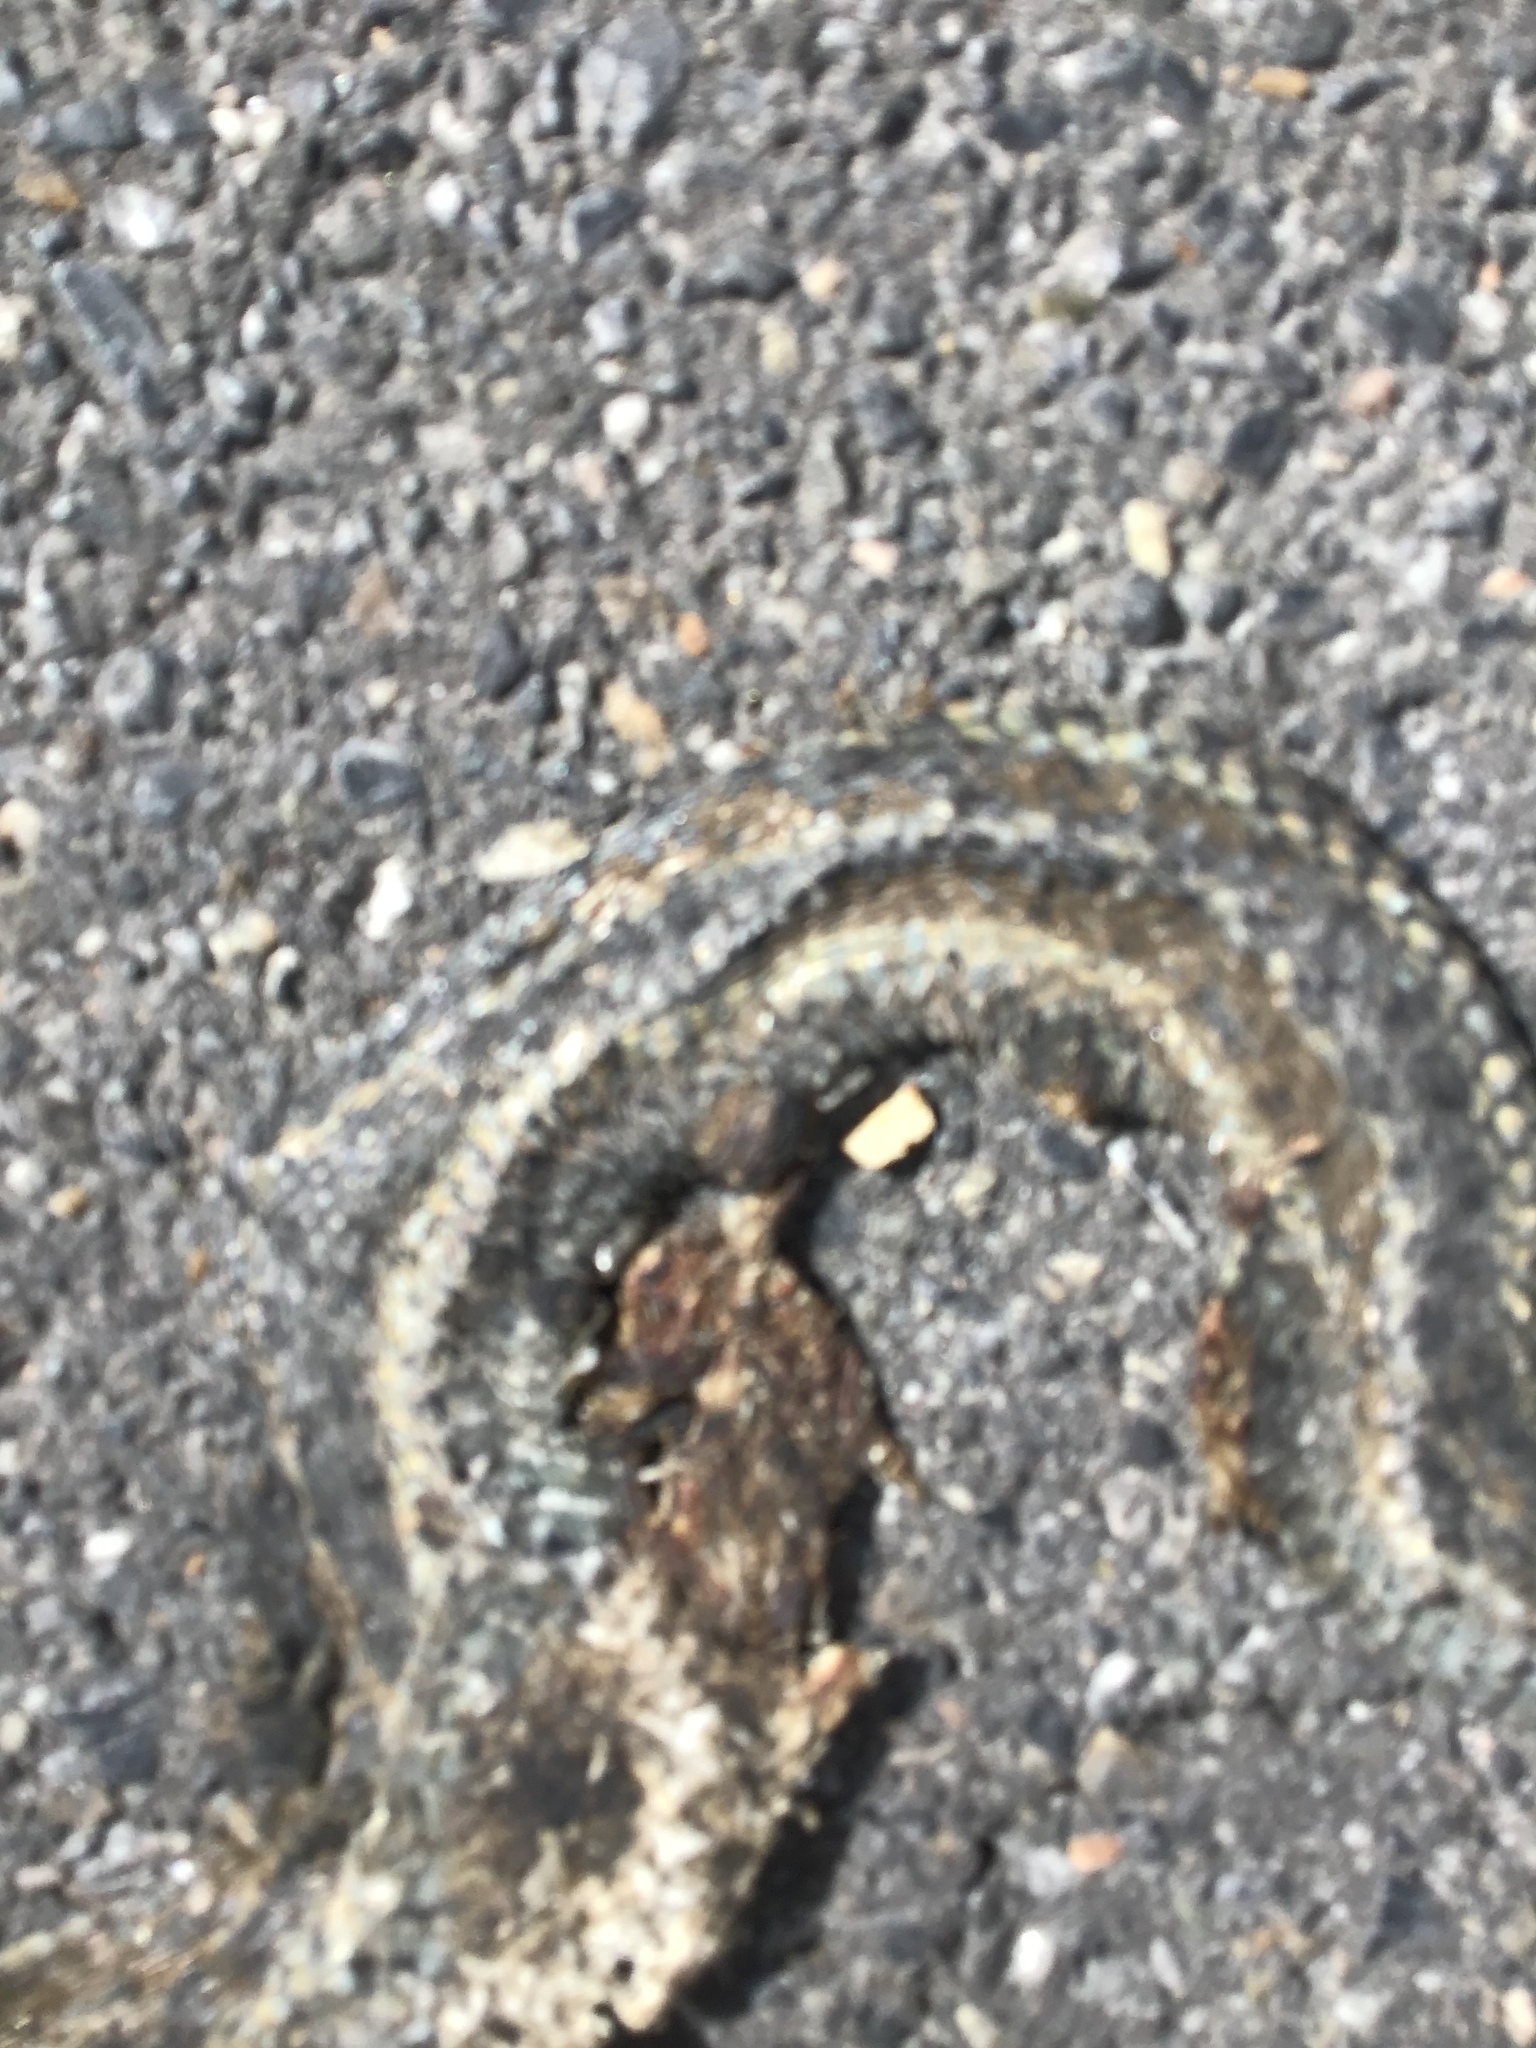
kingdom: Animalia
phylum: Chordata
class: Squamata
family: Colubridae
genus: Thamnophis
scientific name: Thamnophis elegans
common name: Western terrestrial garter snake
